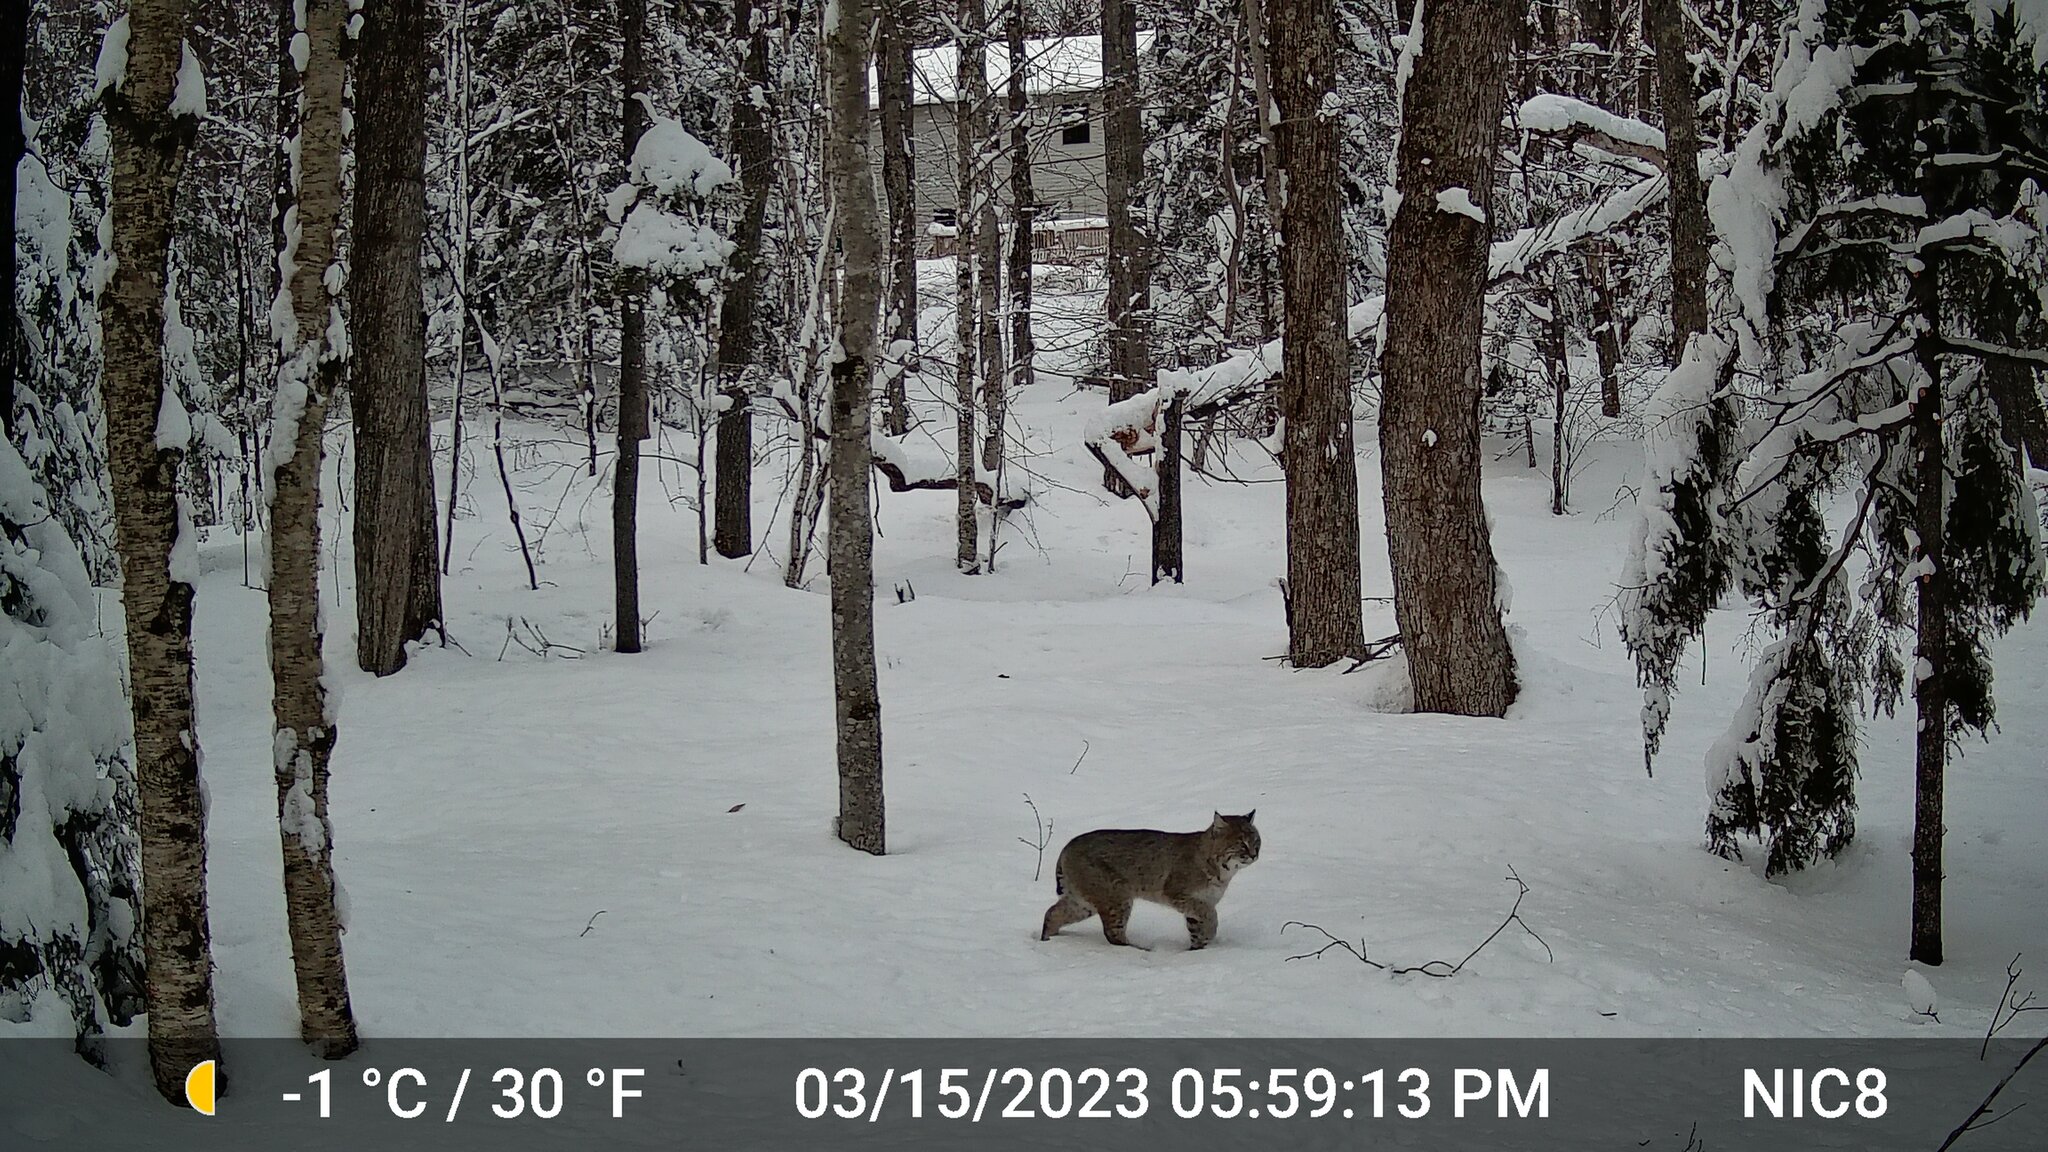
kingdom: Animalia
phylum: Chordata
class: Mammalia
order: Carnivora
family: Felidae
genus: Lynx
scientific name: Lynx rufus
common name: Bobcat
